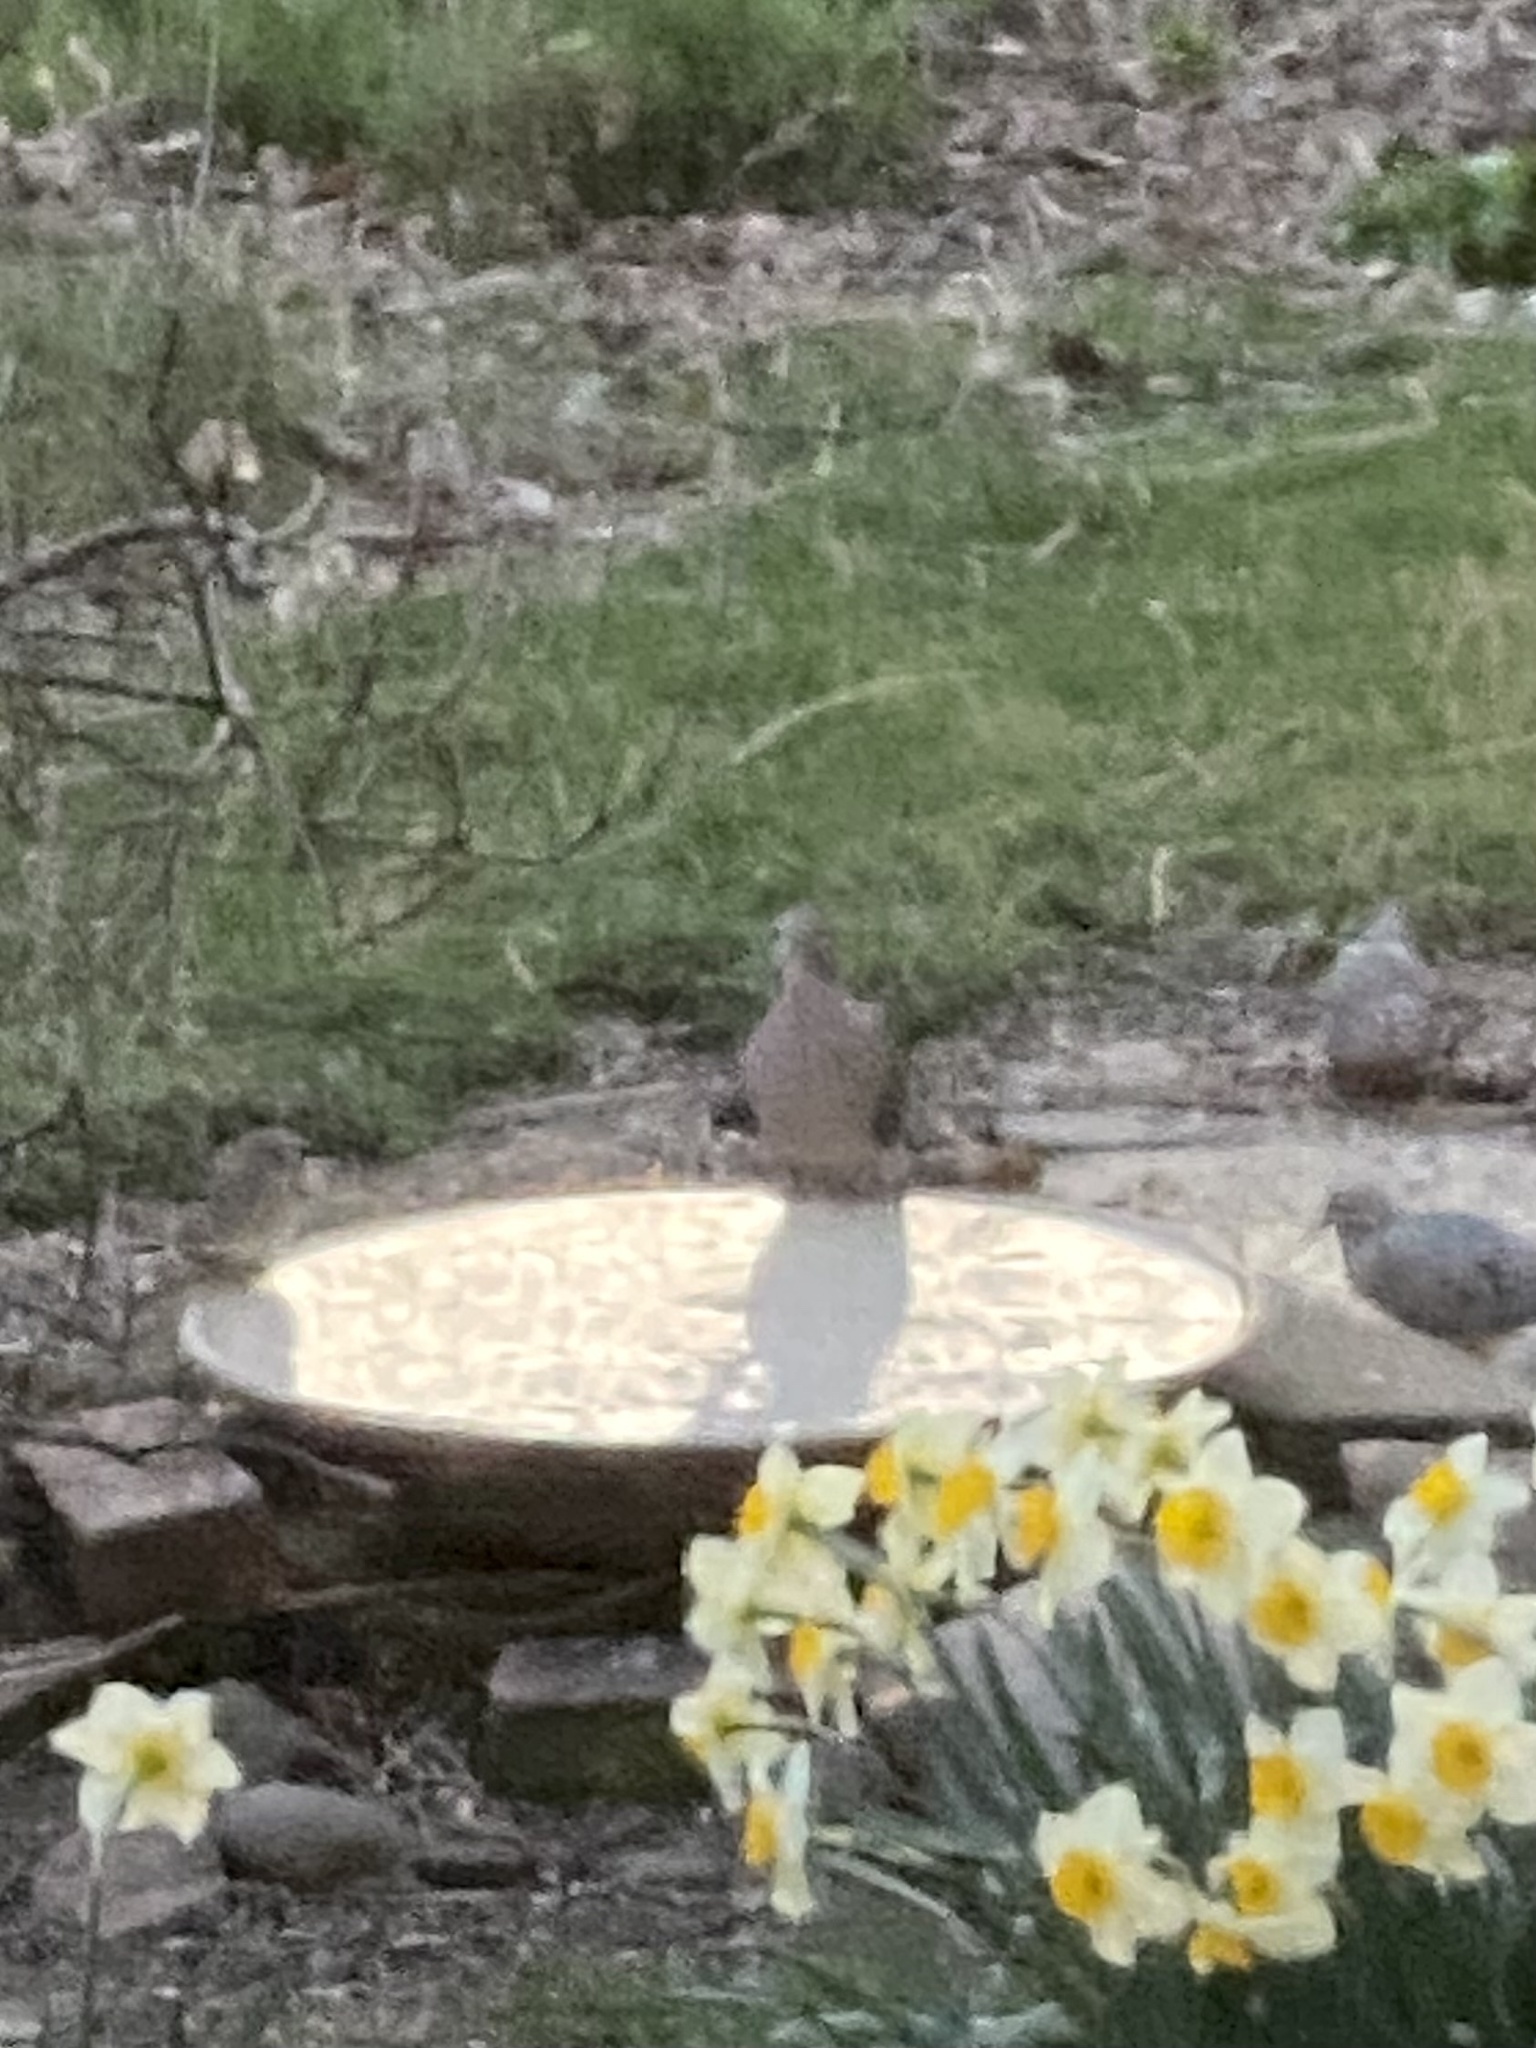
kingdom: Animalia
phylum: Chordata
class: Aves
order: Columbiformes
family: Columbidae
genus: Zenaida
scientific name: Zenaida macroura
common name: Mourning dove
